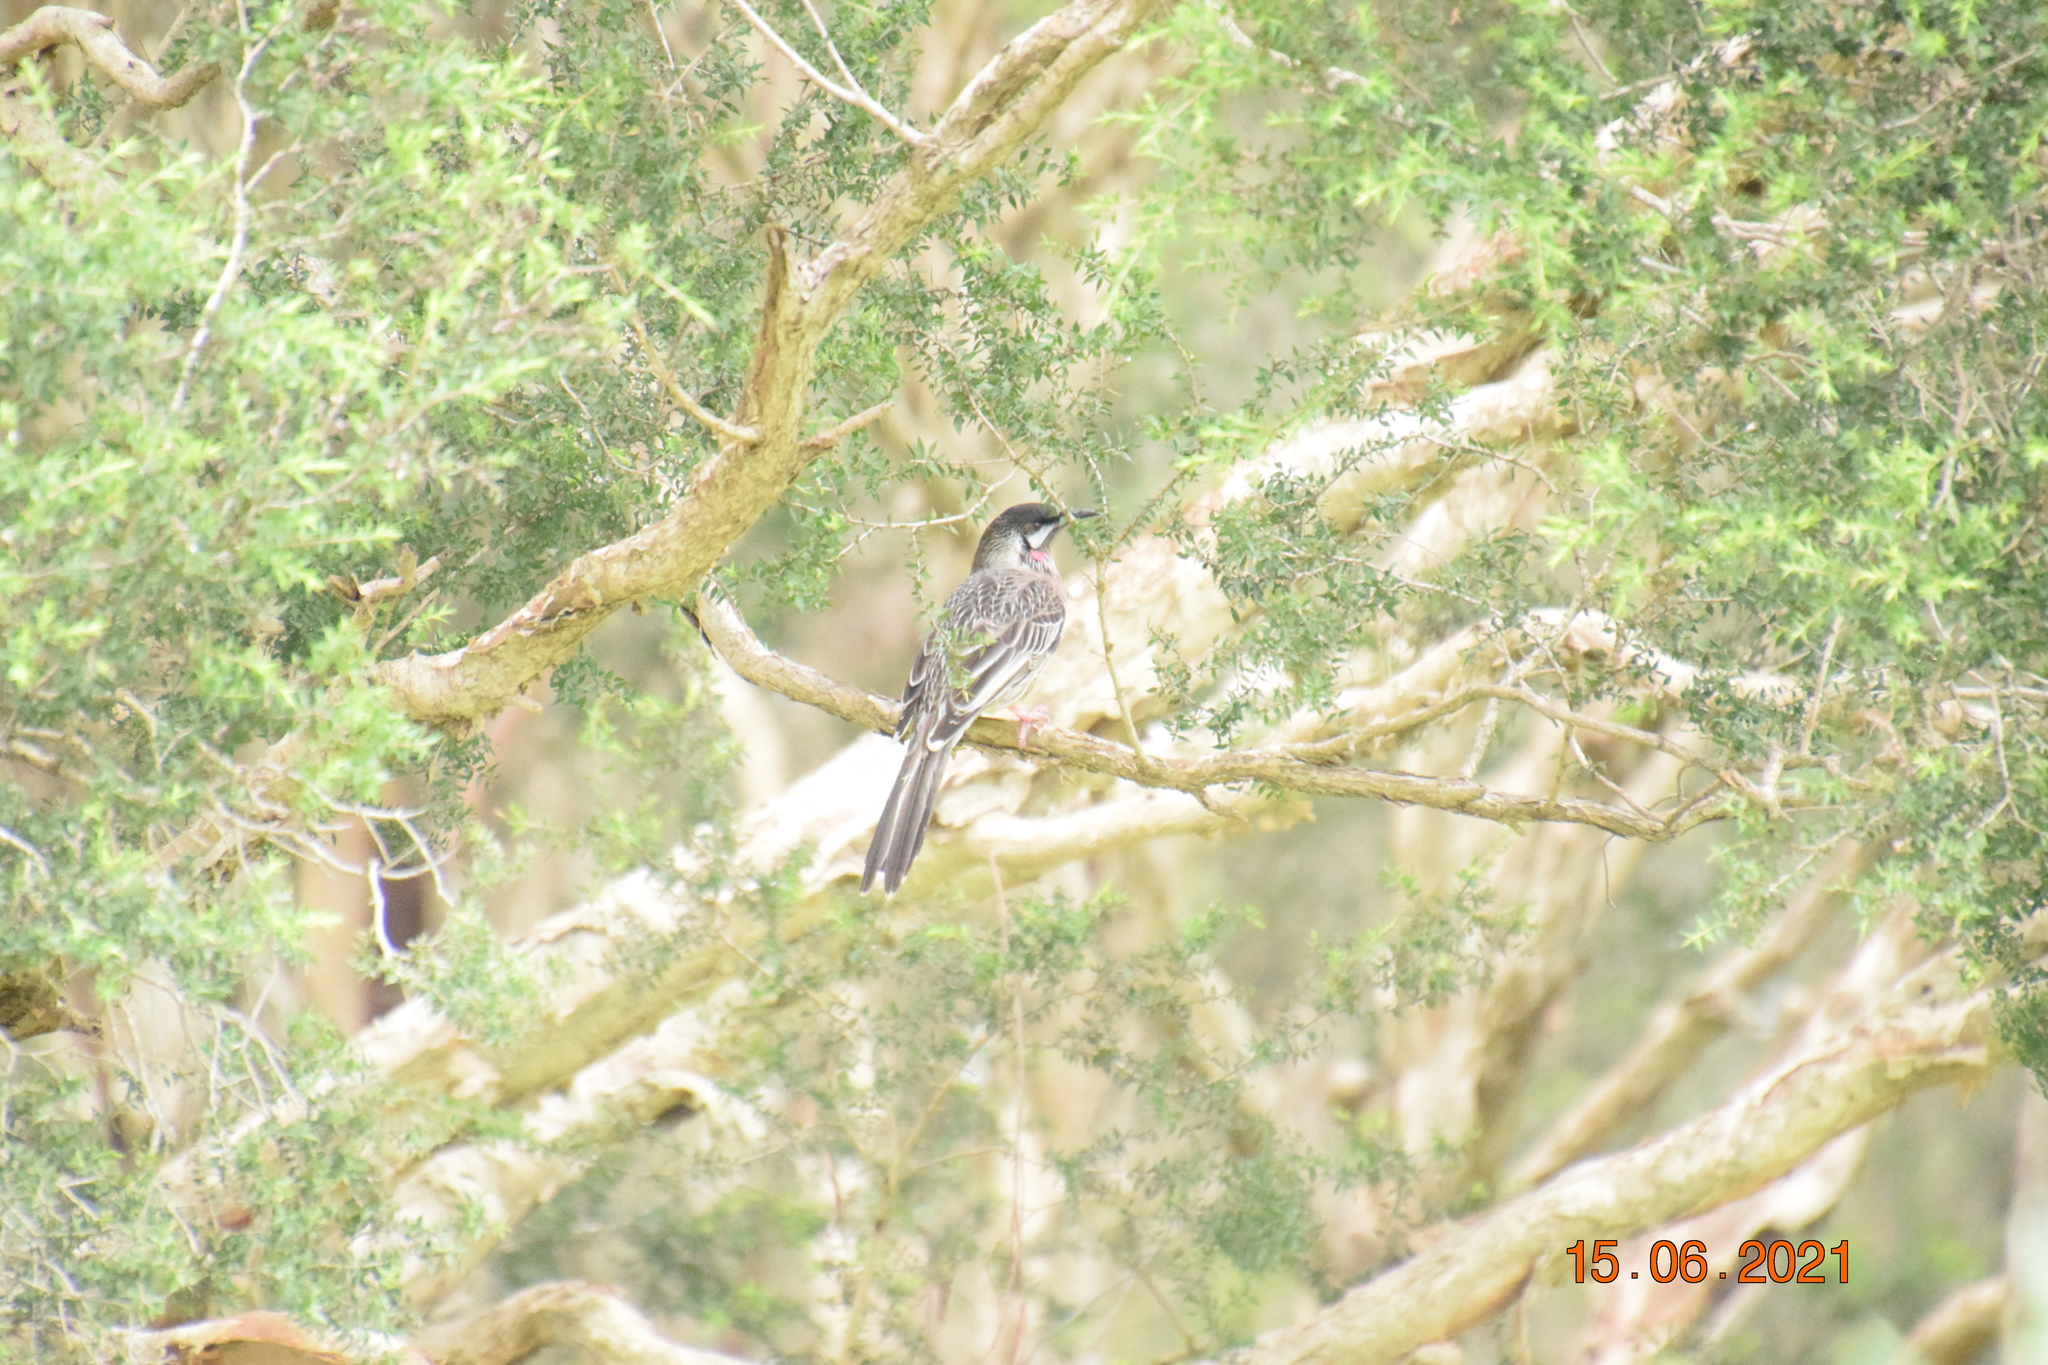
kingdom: Animalia
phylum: Chordata
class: Aves
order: Passeriformes
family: Meliphagidae
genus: Anthochaera
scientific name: Anthochaera carunculata
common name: Red wattlebird
